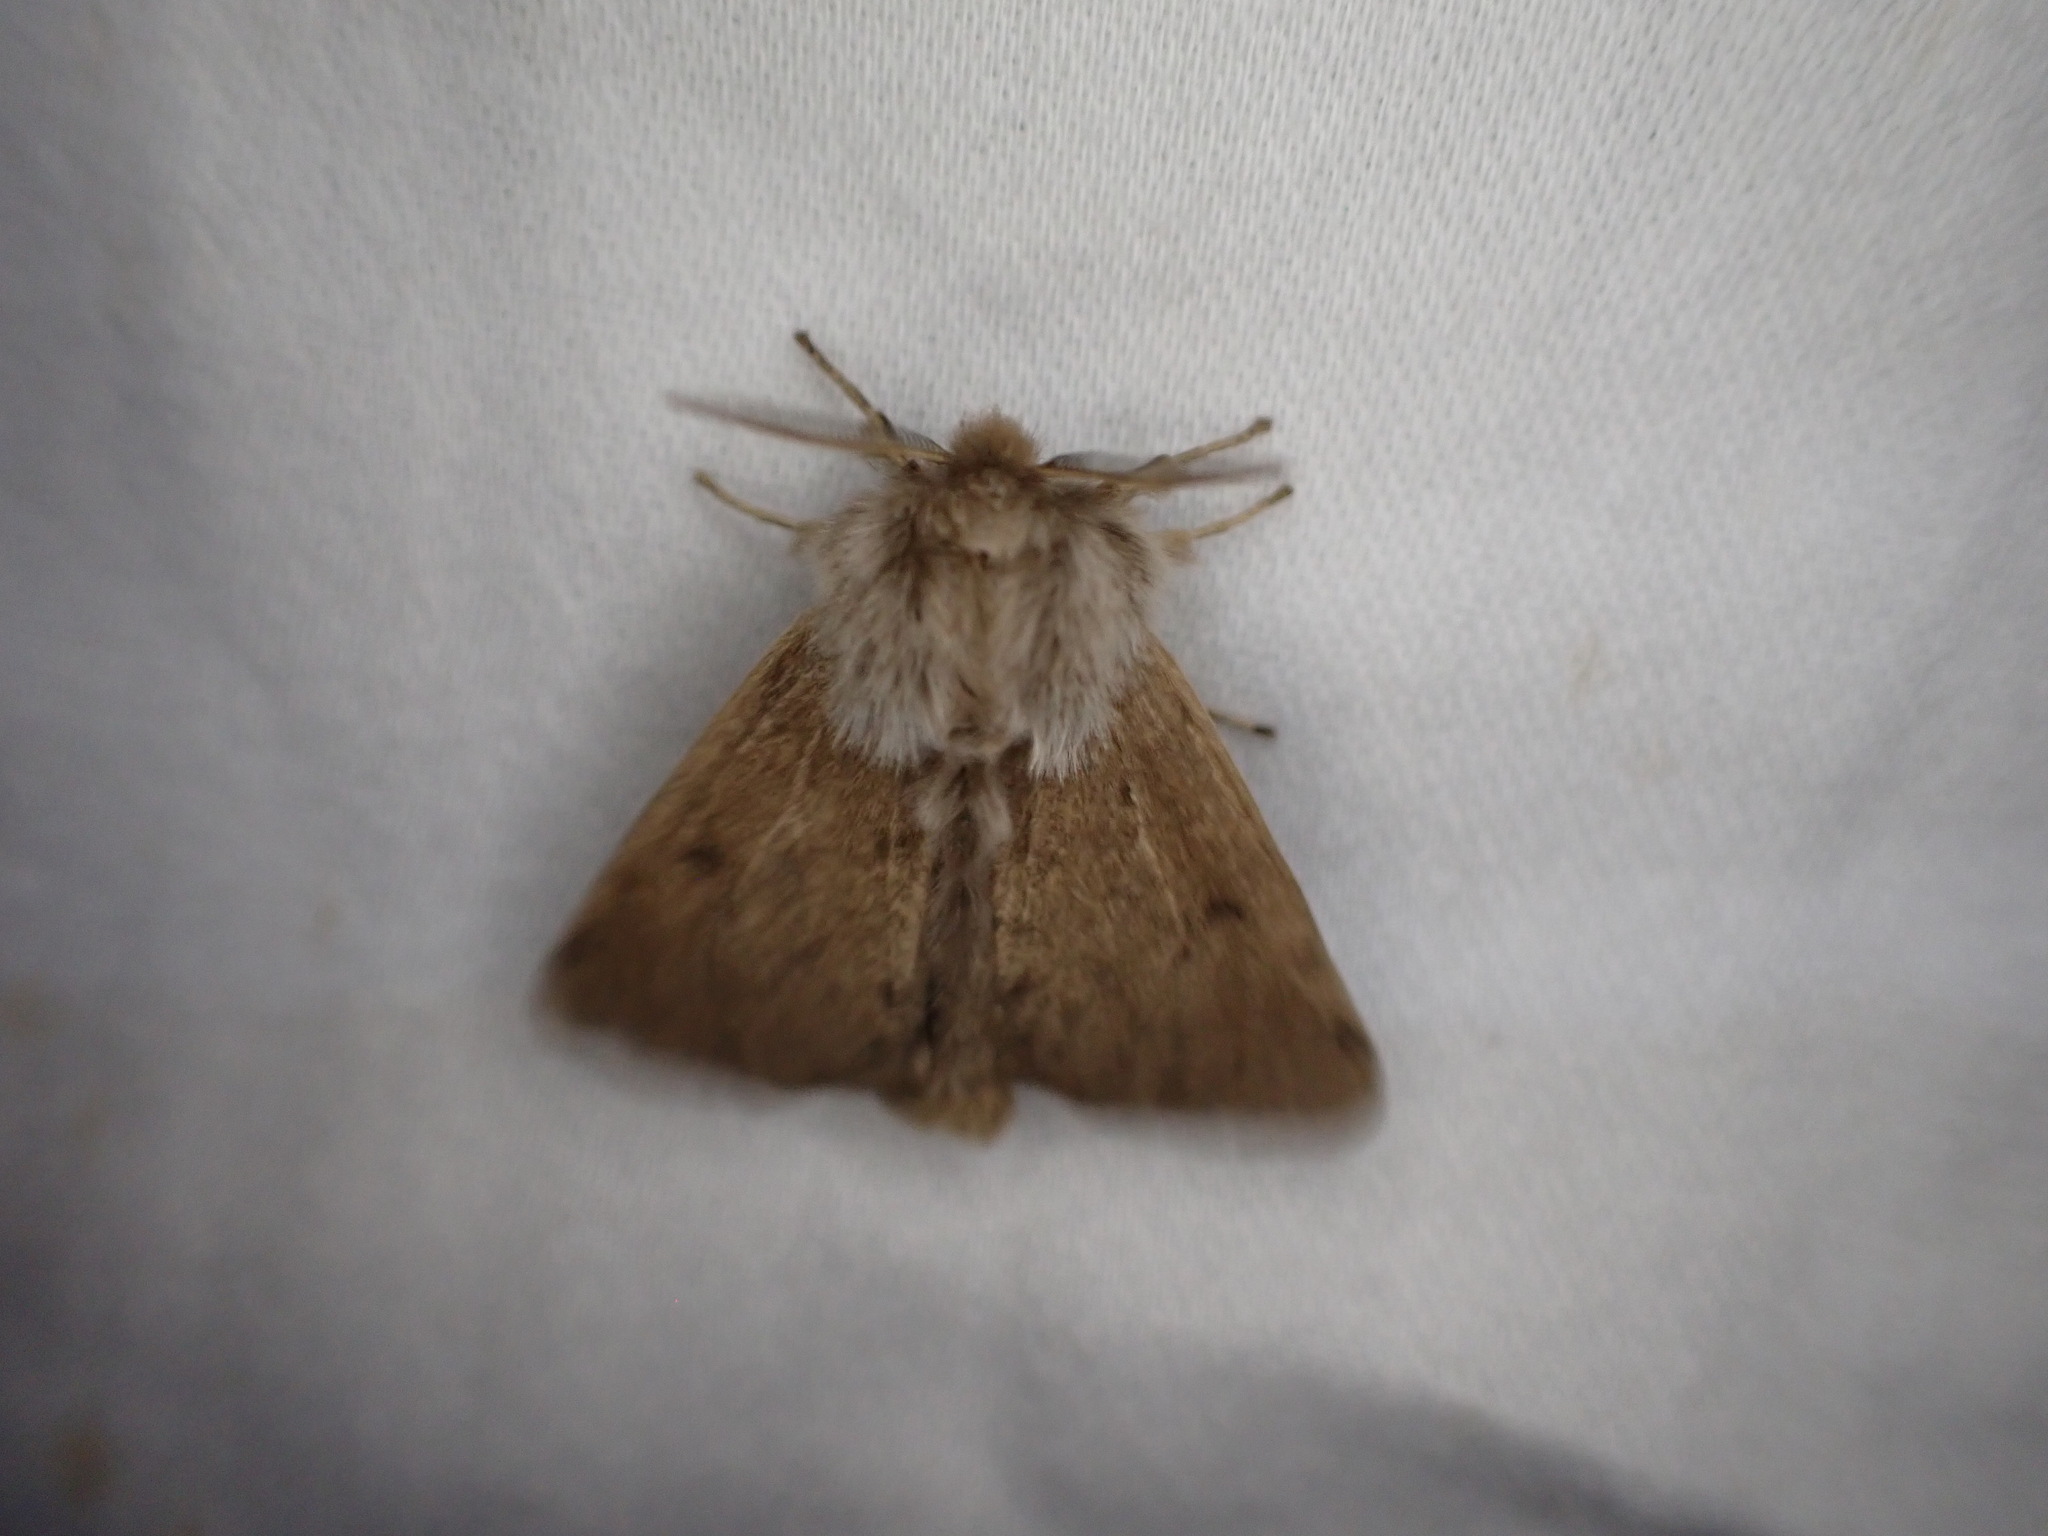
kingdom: Animalia
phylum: Arthropoda
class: Insecta
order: Lepidoptera
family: Erebidae
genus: Spilosoma
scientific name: Spilosoma vagans
